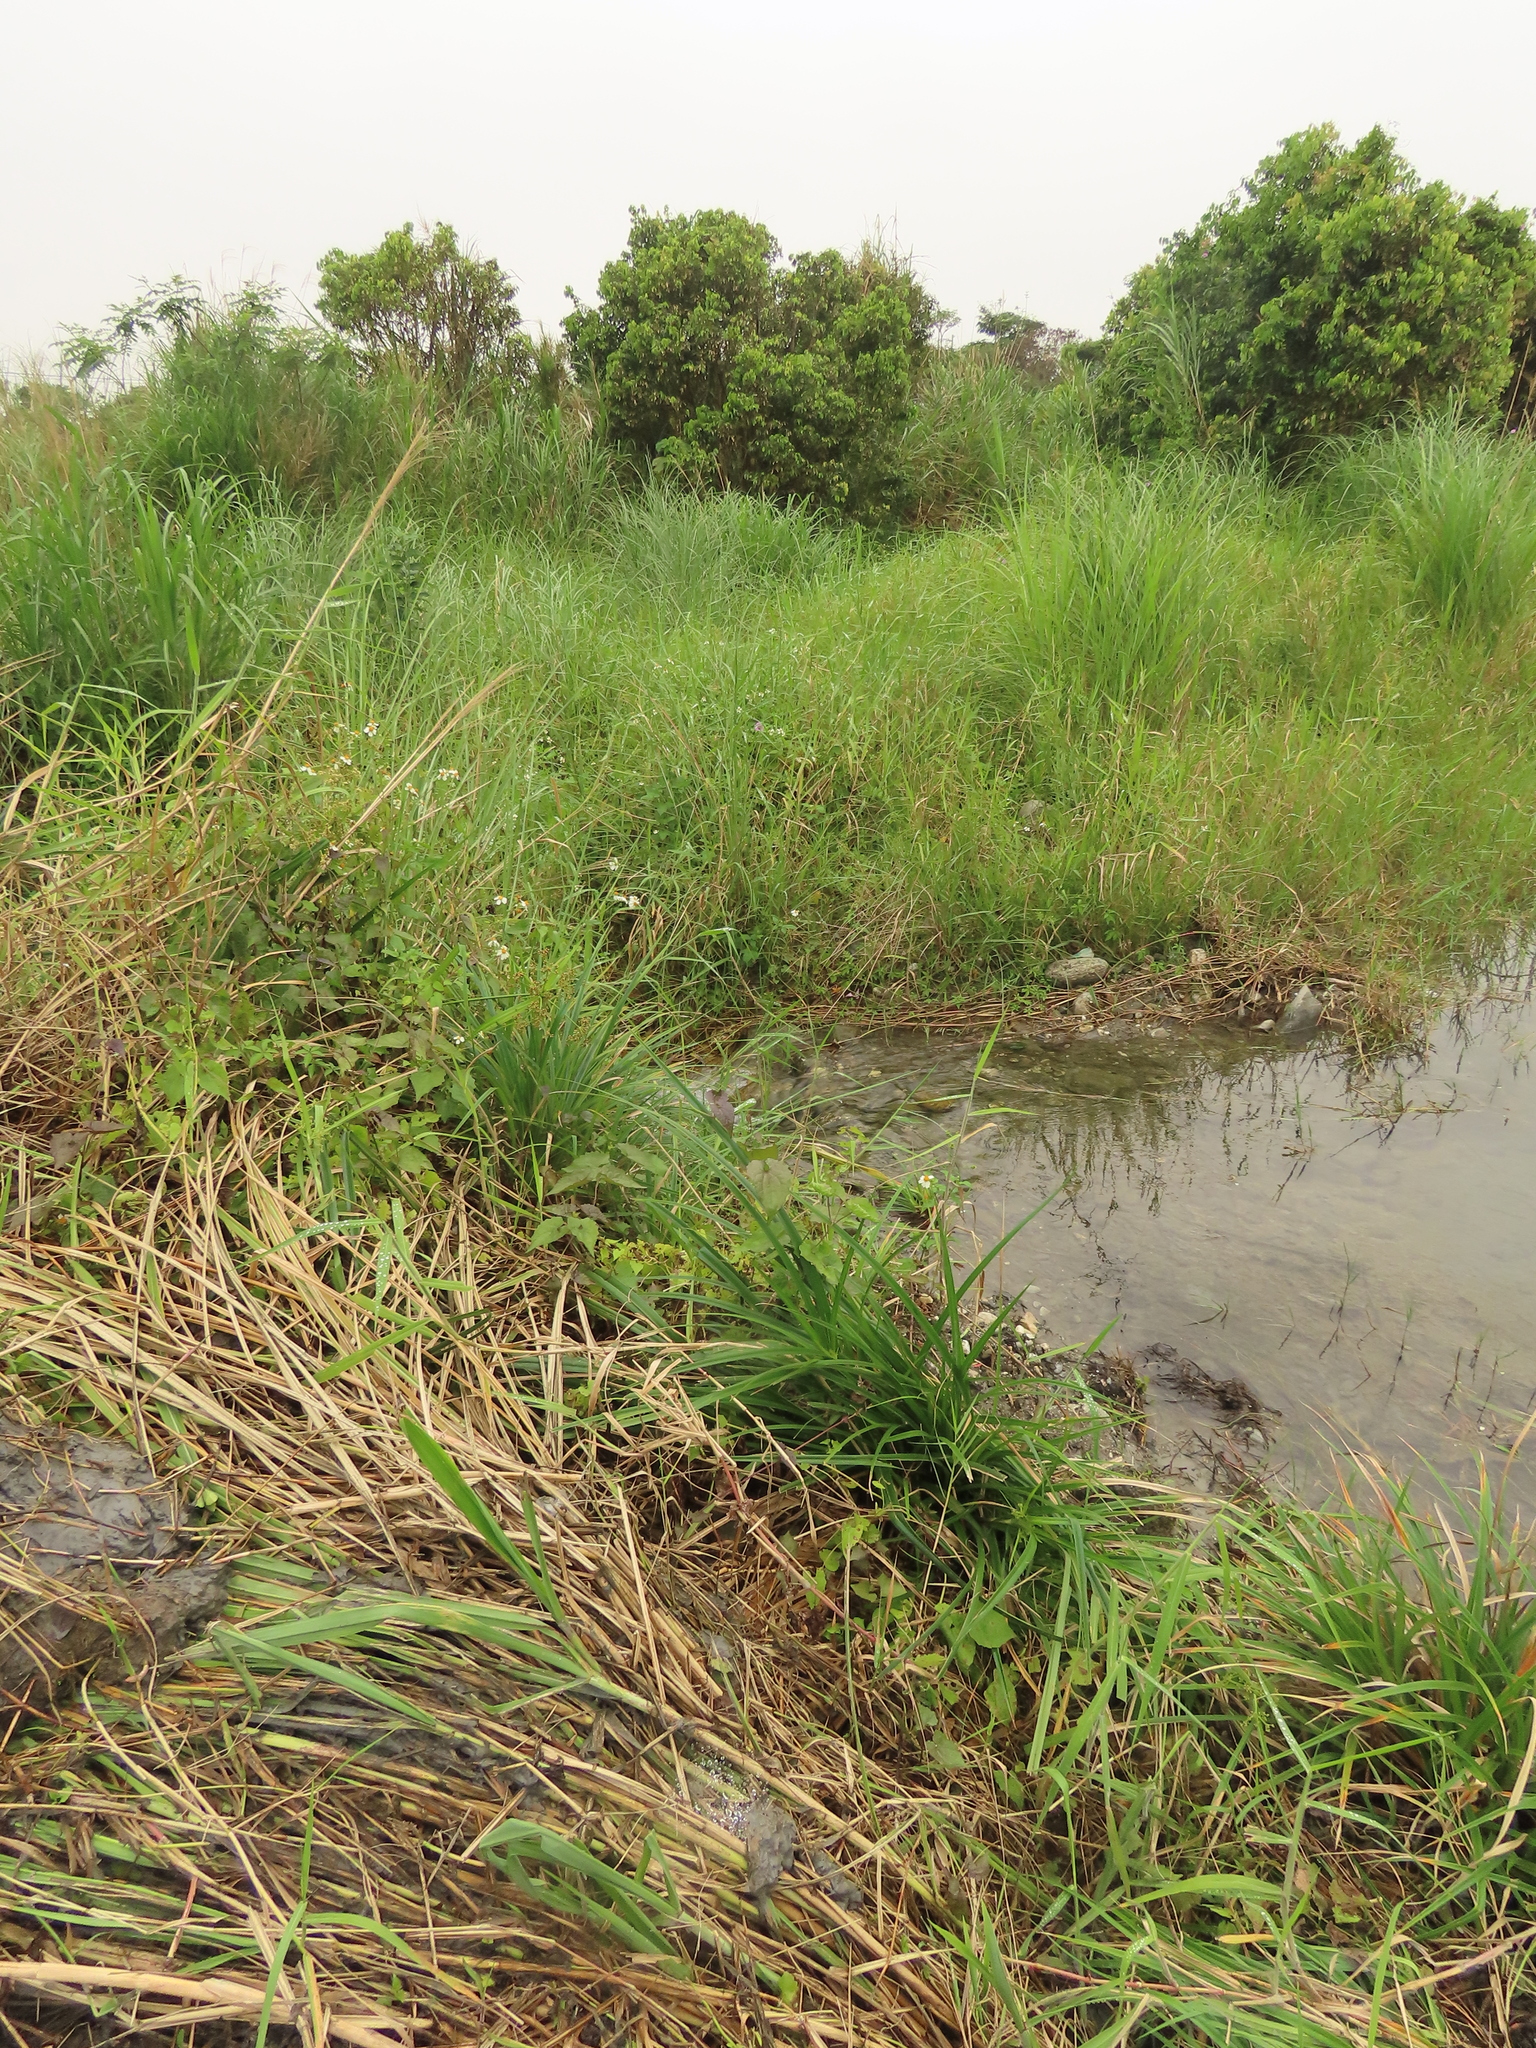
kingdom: Plantae
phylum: Tracheophyta
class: Liliopsida
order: Poales
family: Cyperaceae
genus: Scirpus
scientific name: Scirpus ternatanus
